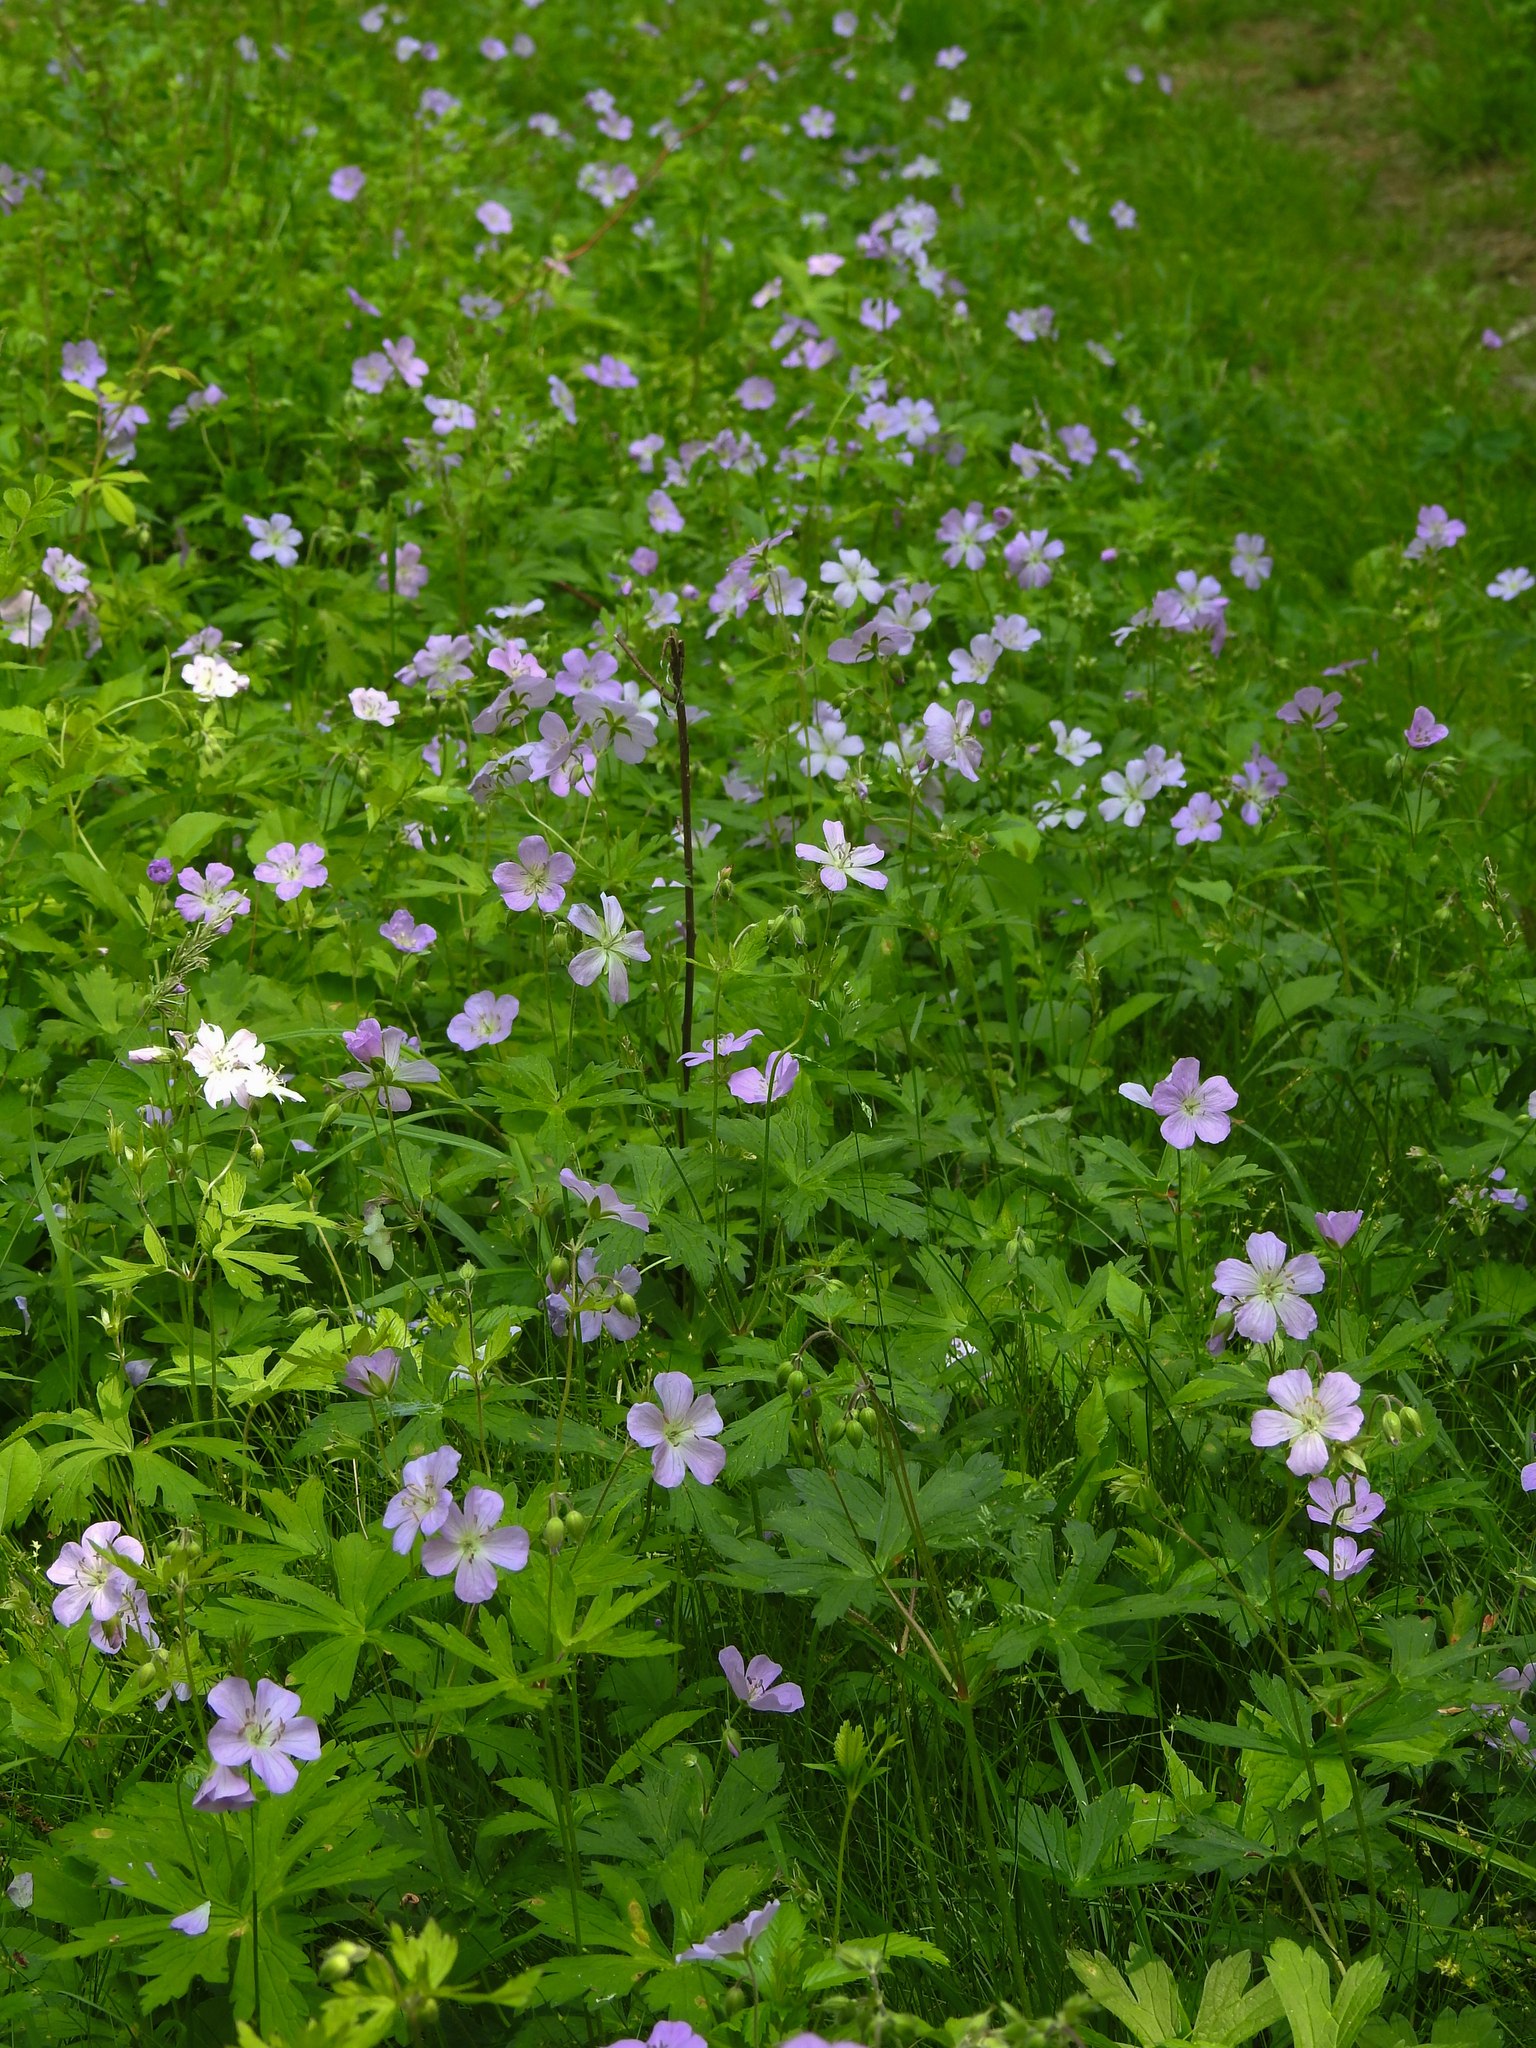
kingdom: Plantae
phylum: Tracheophyta
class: Magnoliopsida
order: Geraniales
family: Geraniaceae
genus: Geranium
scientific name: Geranium maculatum
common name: Spotted geranium
